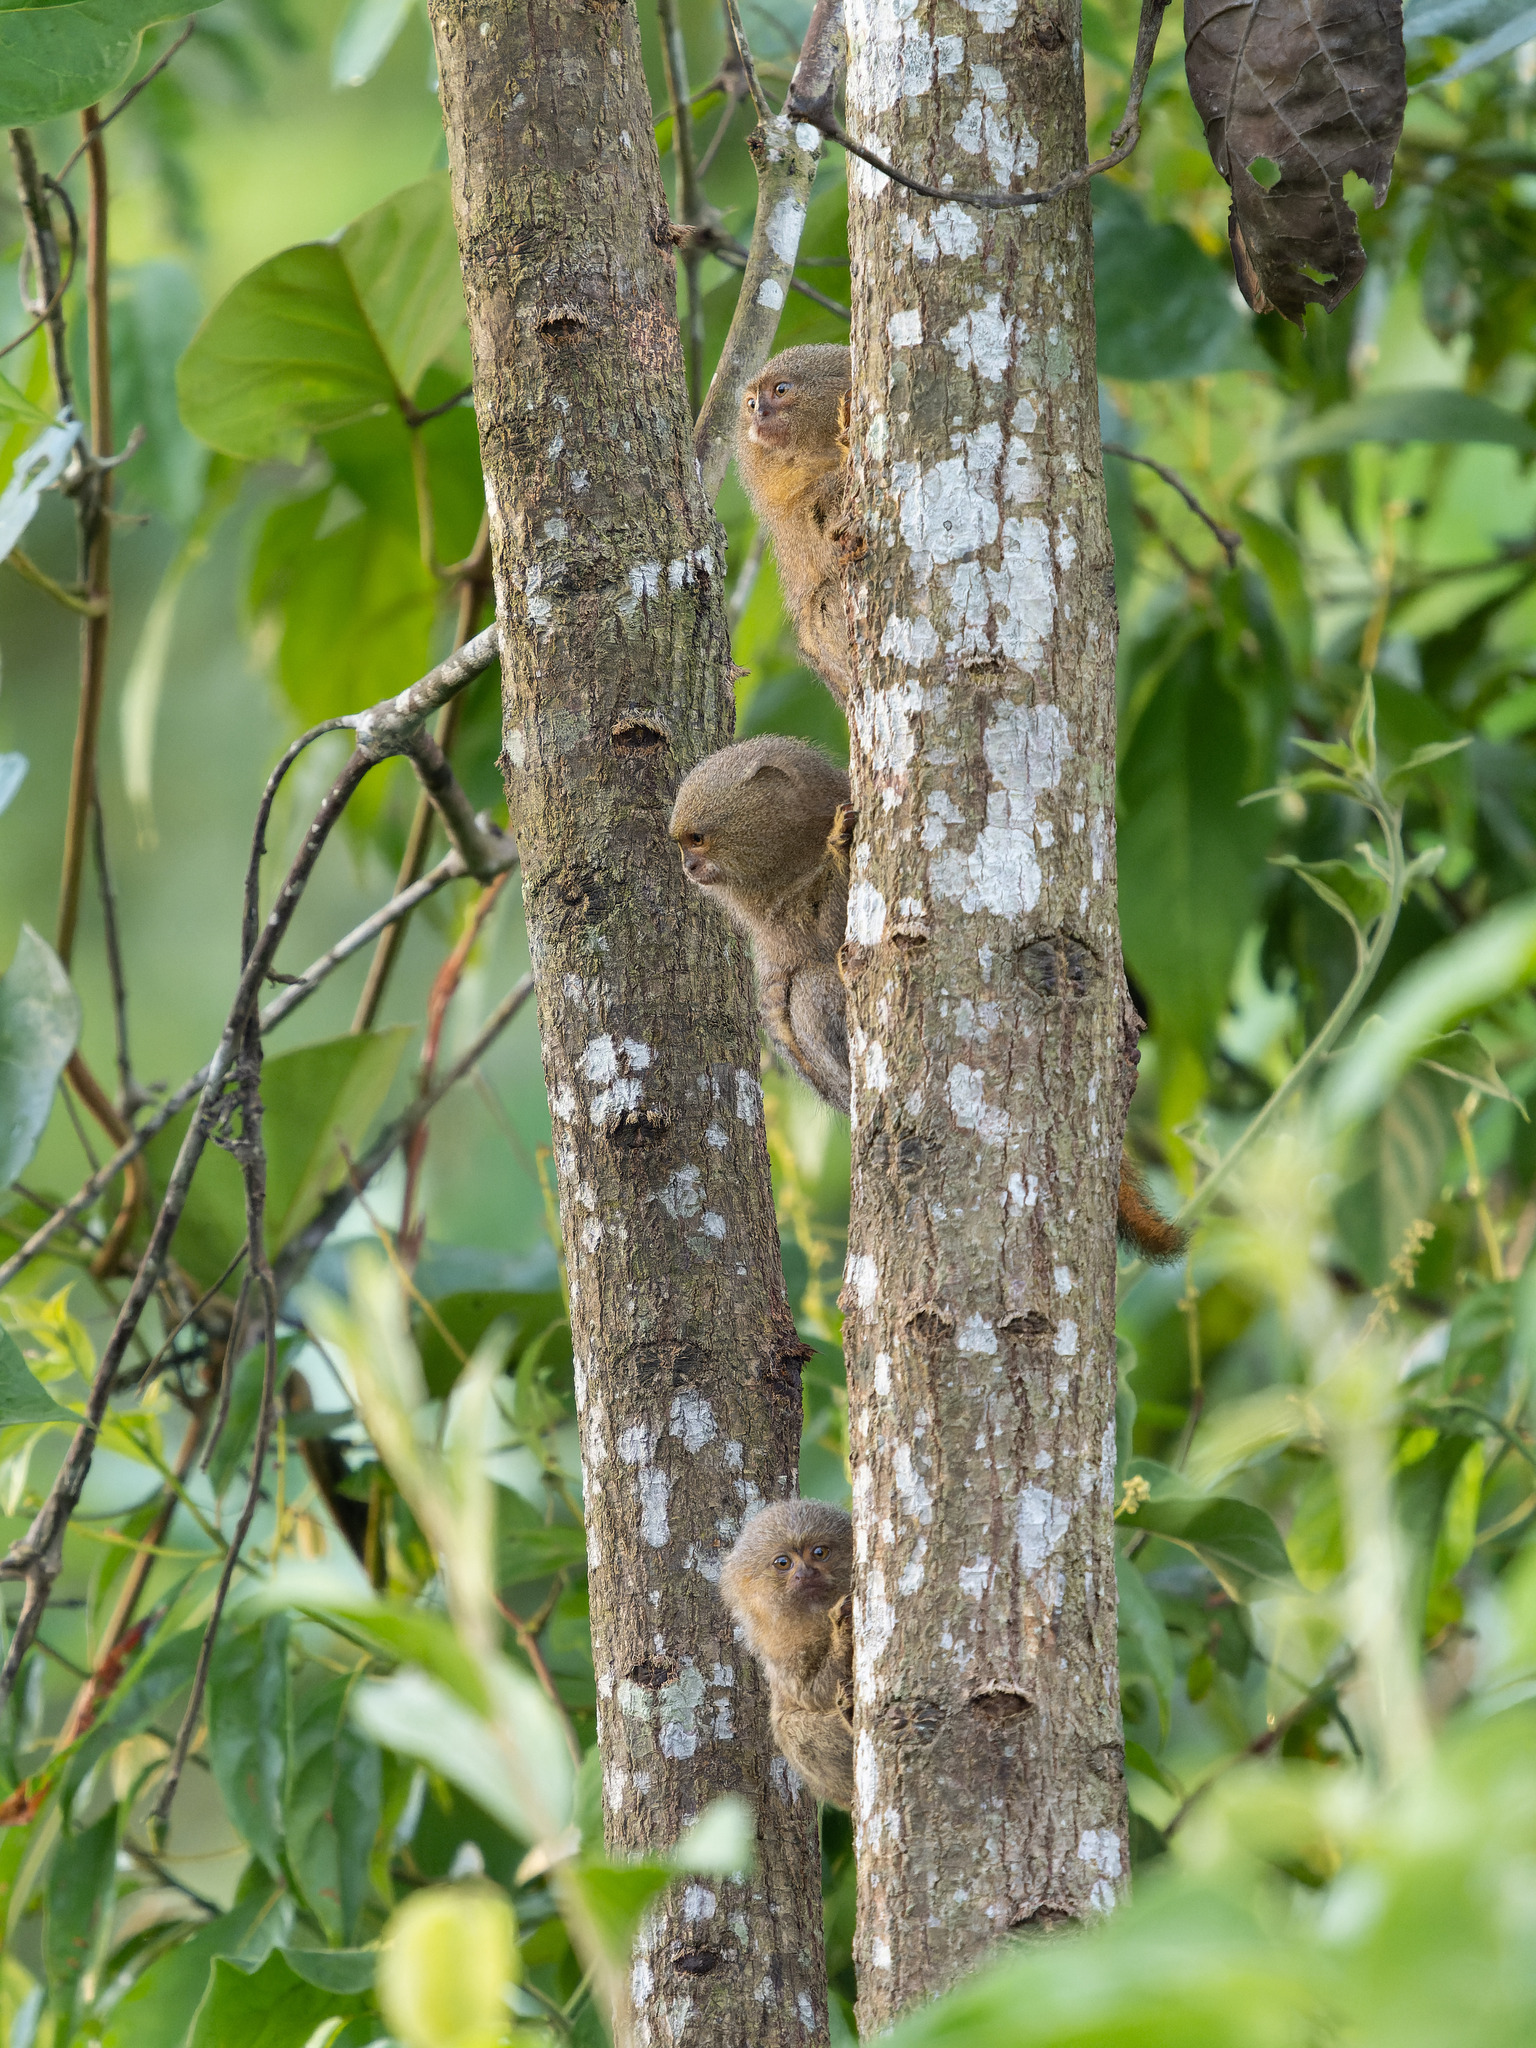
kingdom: Animalia
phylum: Chordata
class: Mammalia
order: Primates
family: Callitrichidae
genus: Cebuella
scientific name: Cebuella niveiventris
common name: Eastern pygmy marmoset
